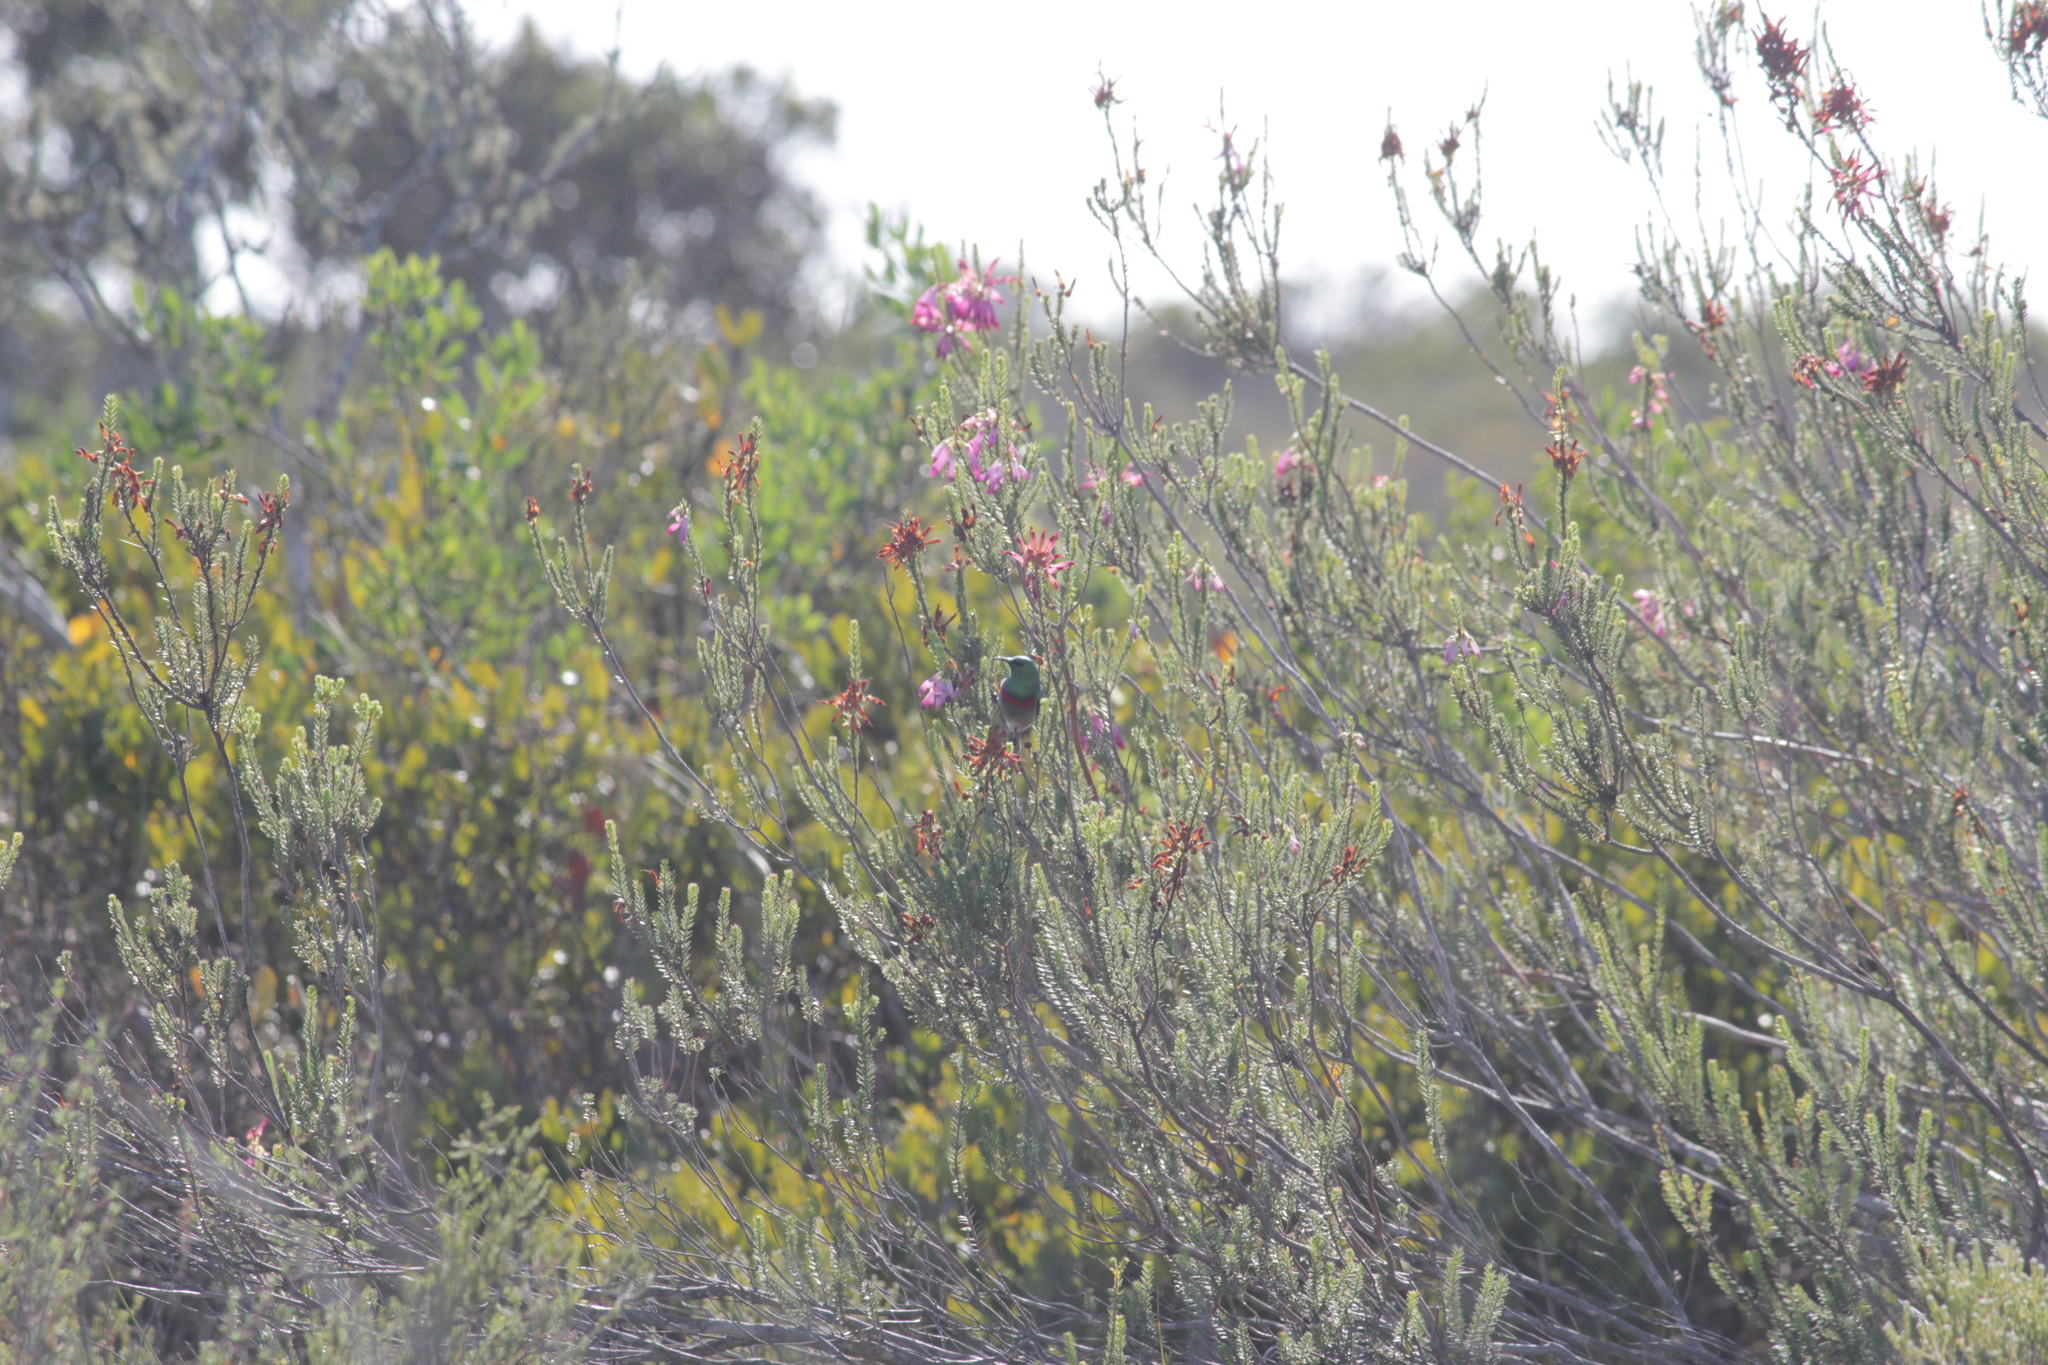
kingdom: Animalia
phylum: Chordata
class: Aves
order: Passeriformes
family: Nectariniidae
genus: Cinnyris
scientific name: Cinnyris chalybeus
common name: Southern double-collared sunbird
